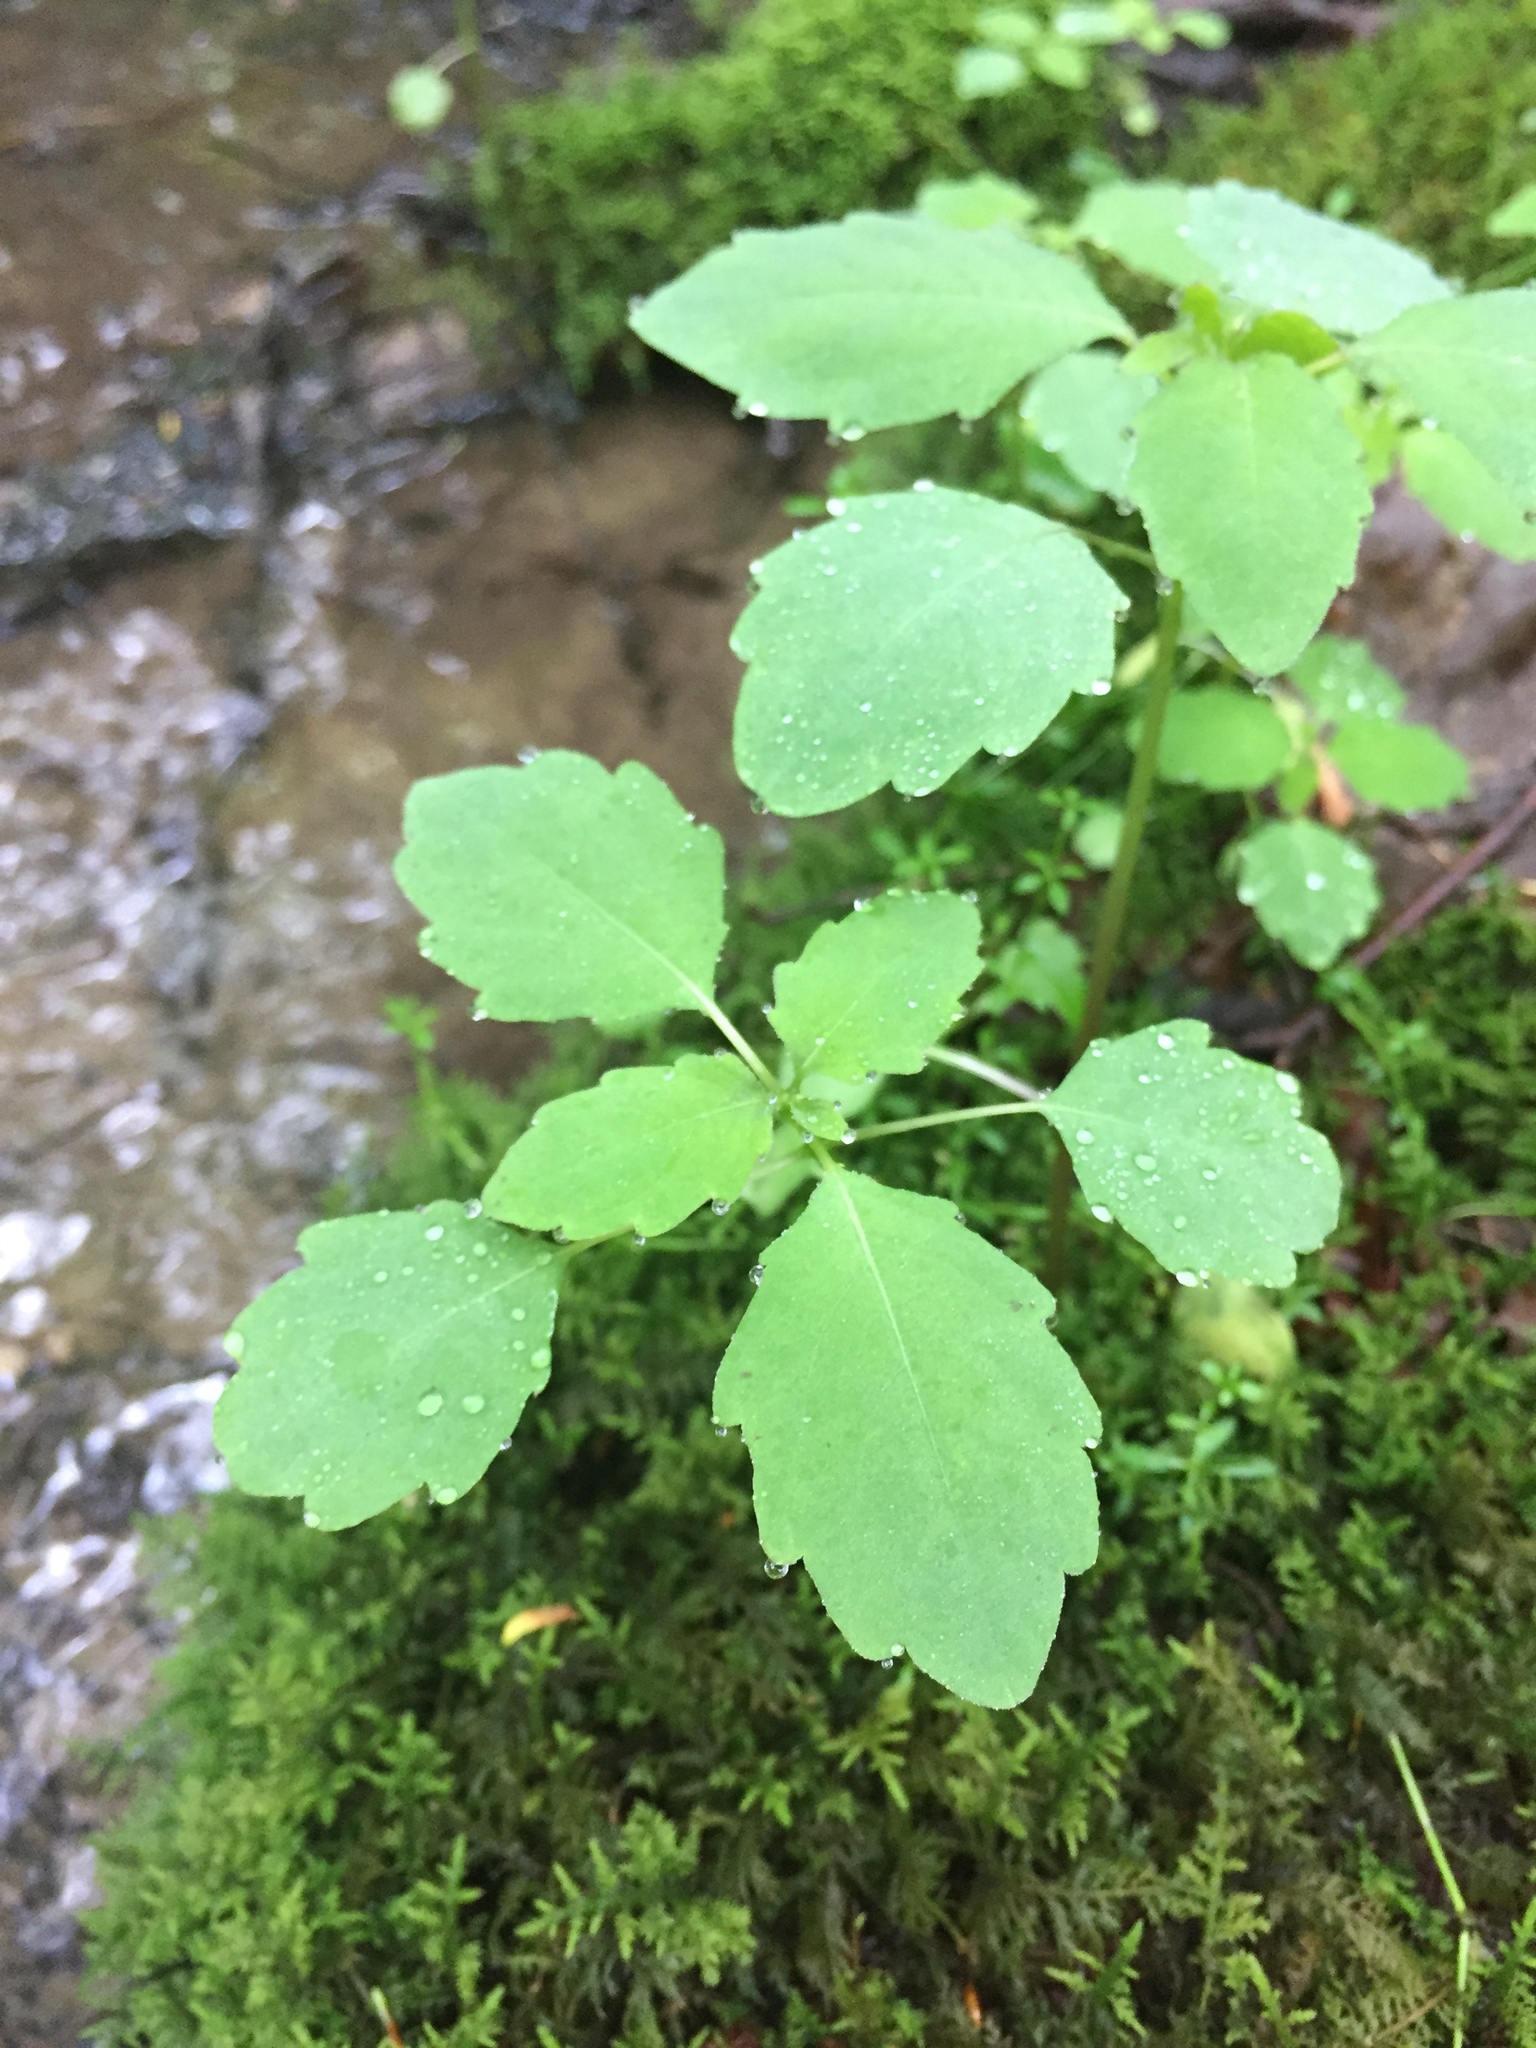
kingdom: Plantae
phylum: Tracheophyta
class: Magnoliopsida
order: Ericales
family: Balsaminaceae
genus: Impatiens
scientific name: Impatiens
